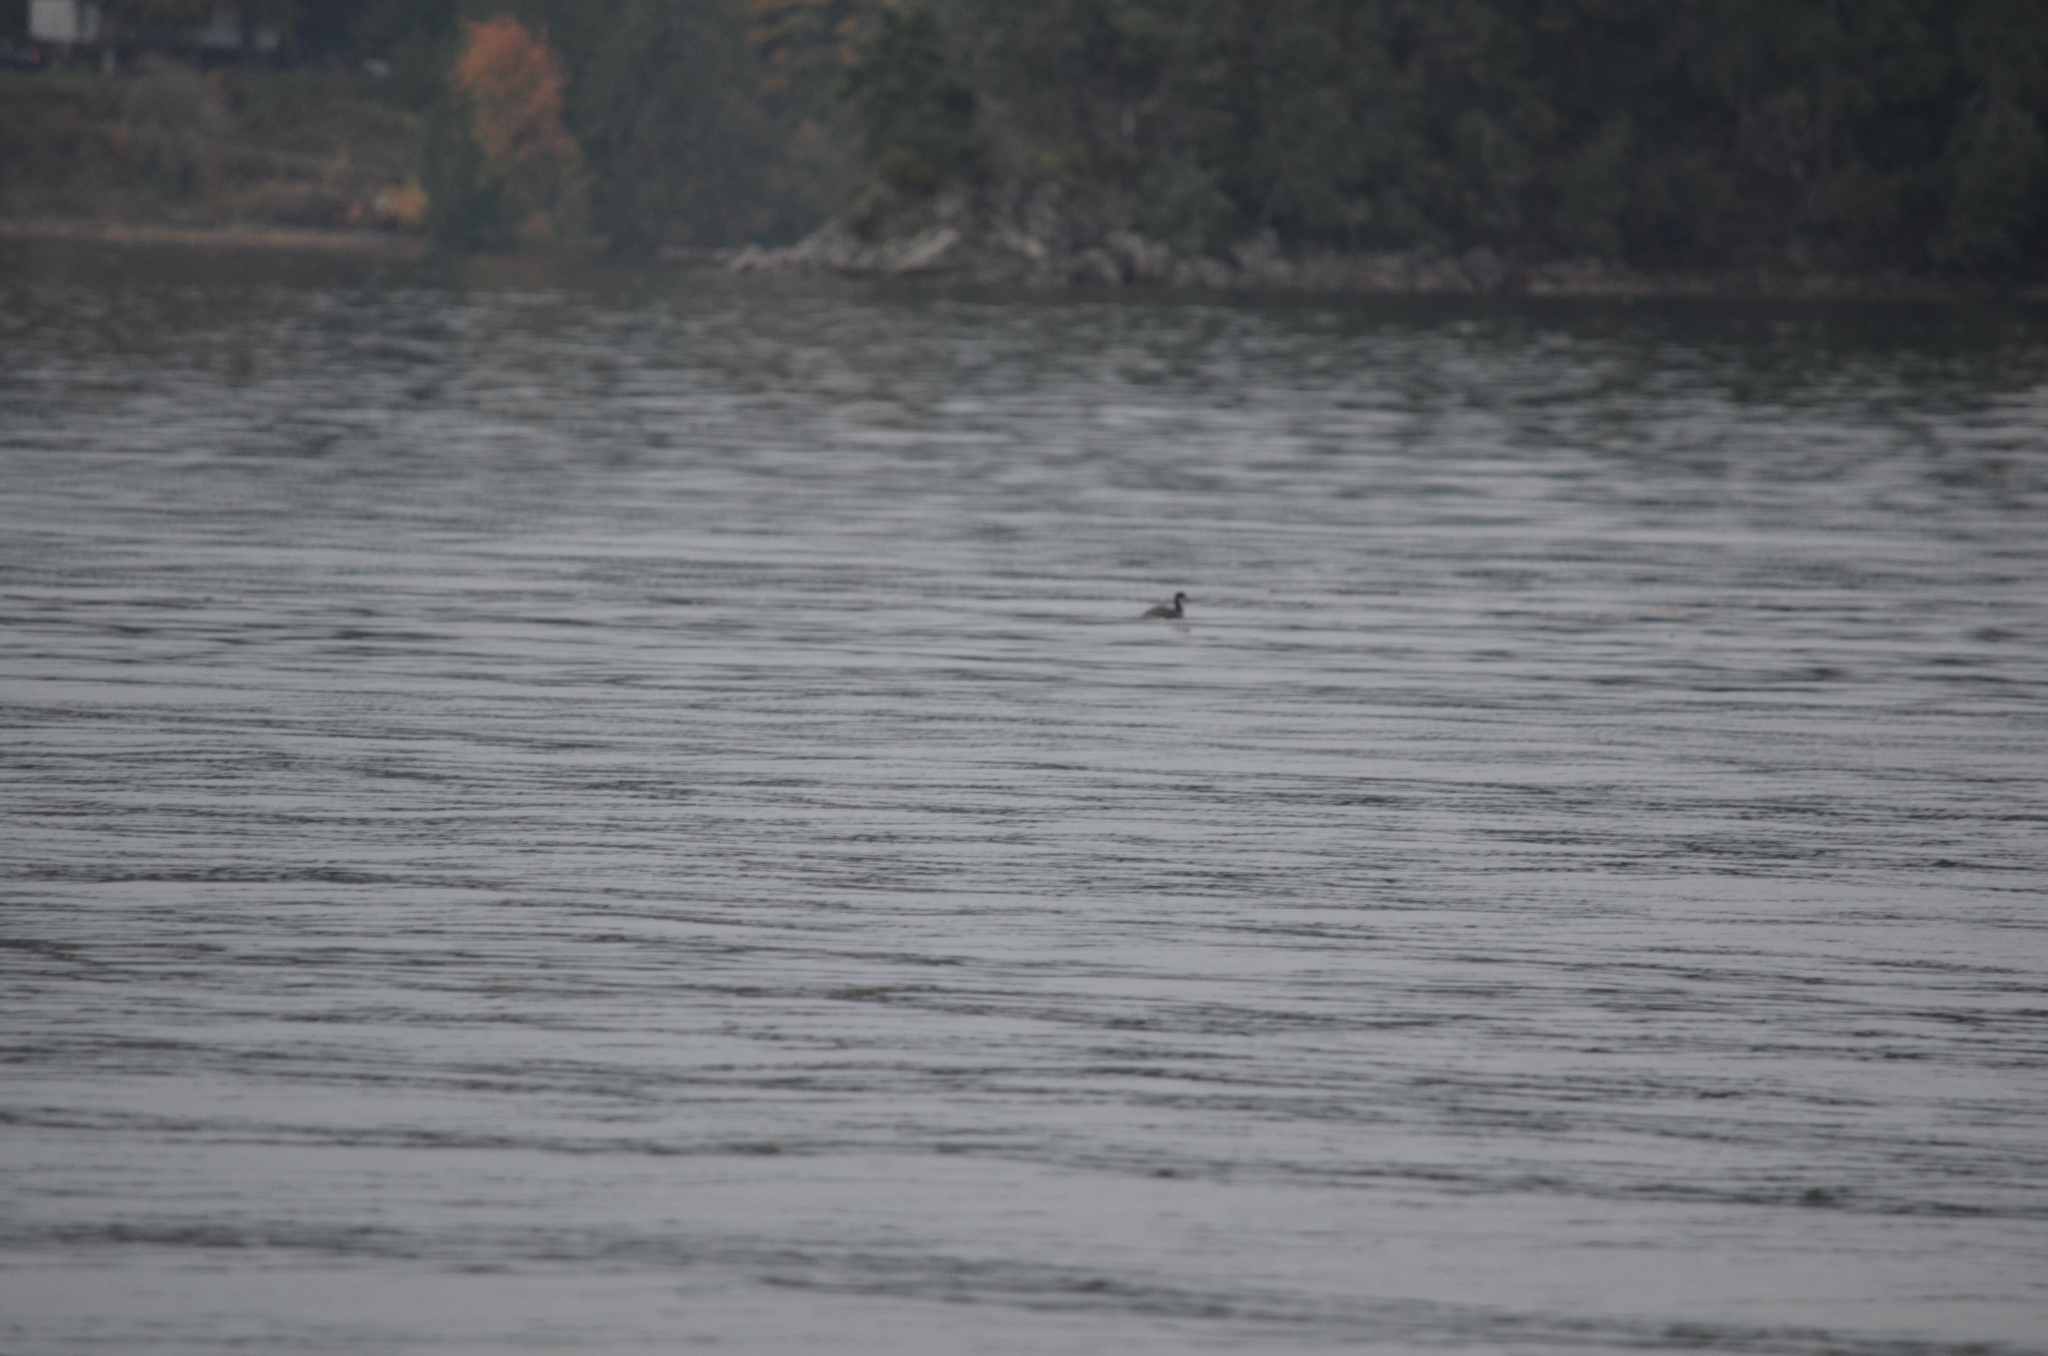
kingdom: Animalia
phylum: Chordata
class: Aves
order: Podicipediformes
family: Podicipedidae
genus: Podiceps
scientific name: Podiceps grisegena
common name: Red-necked grebe
